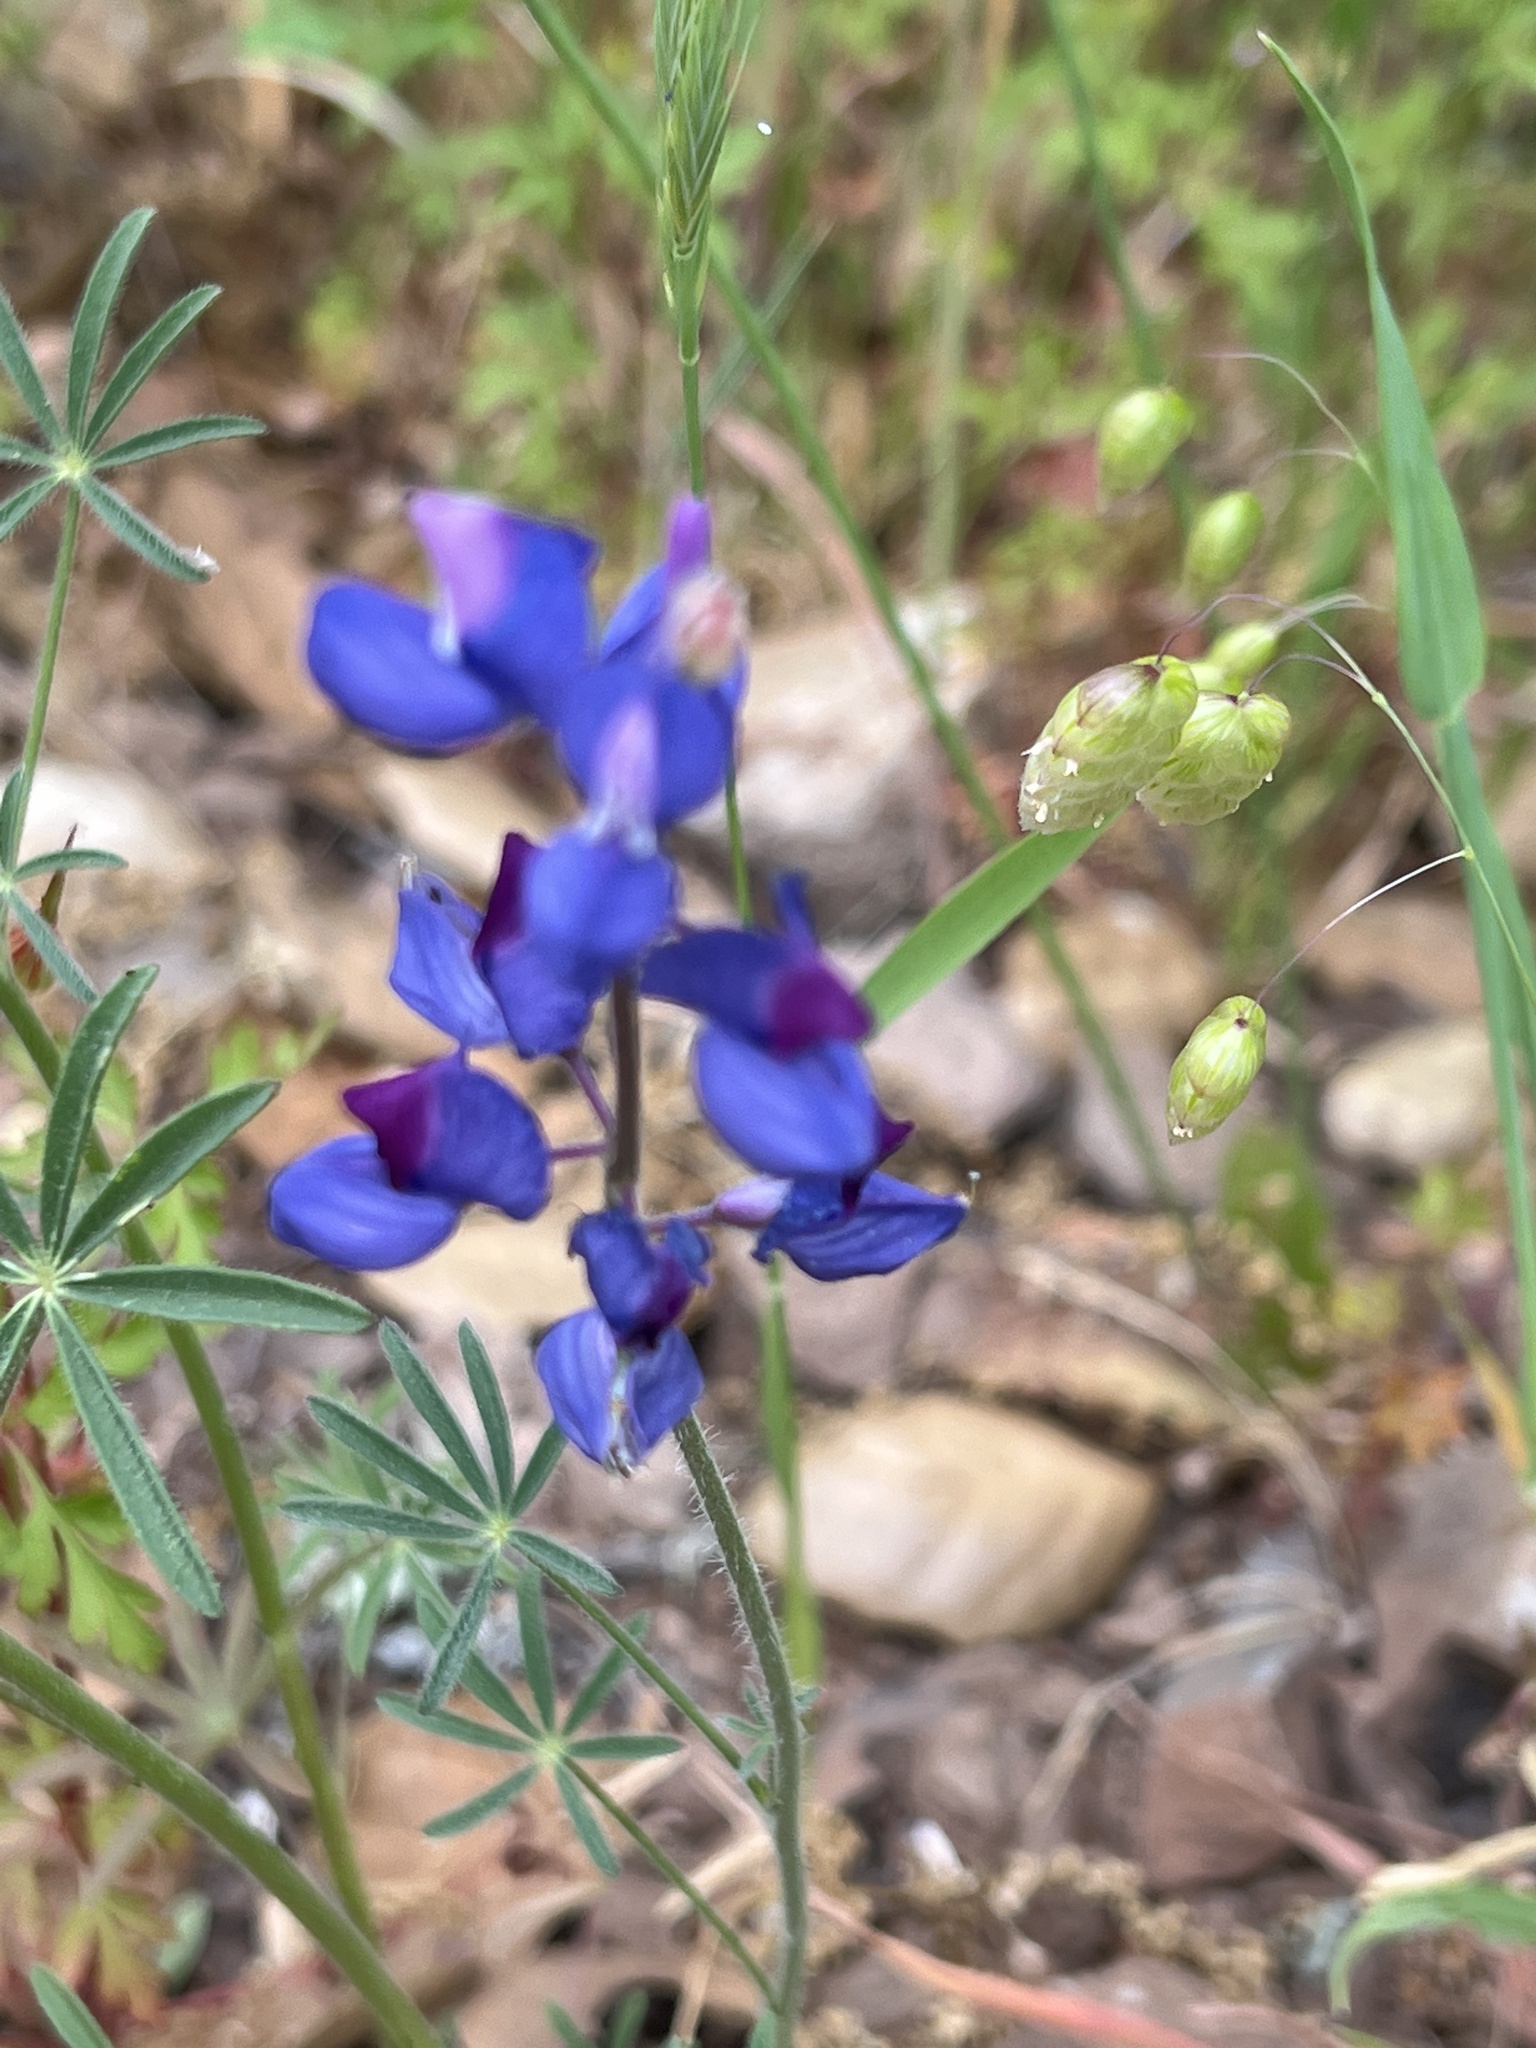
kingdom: Plantae
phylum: Tracheophyta
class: Magnoliopsida
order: Fabales
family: Fabaceae
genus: Lupinus
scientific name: Lupinus nanus
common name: Orean blue lupin
